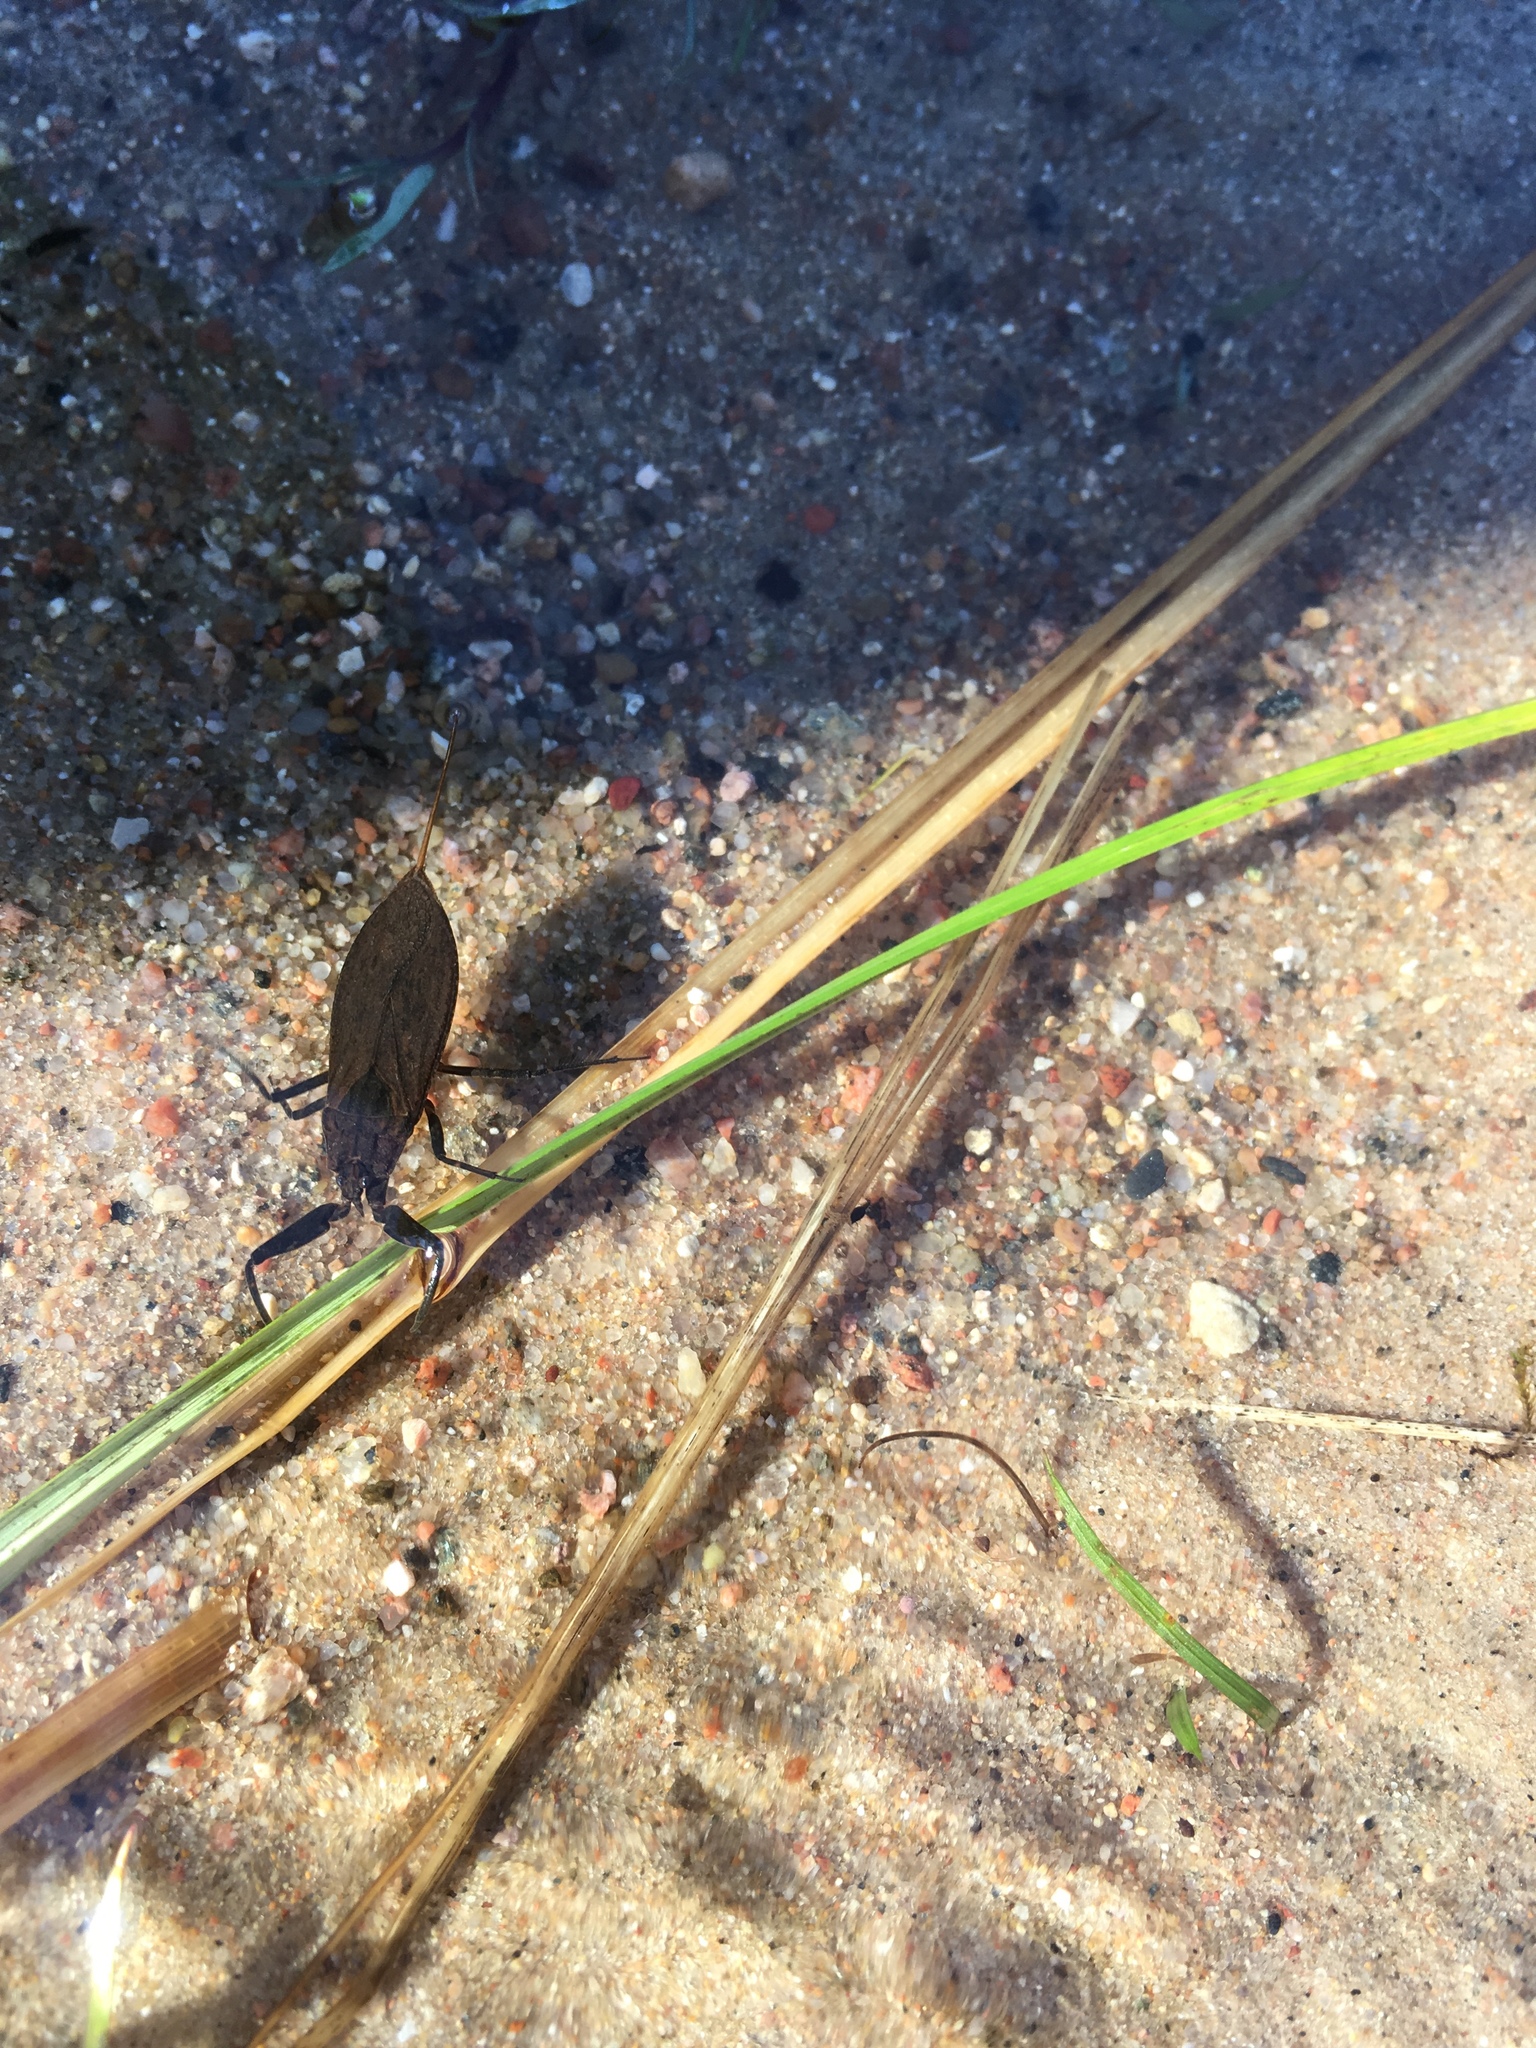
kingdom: Animalia
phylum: Arthropoda
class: Insecta
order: Hemiptera
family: Nepidae
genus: Nepa
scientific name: Nepa cinerea
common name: Water scorpion
